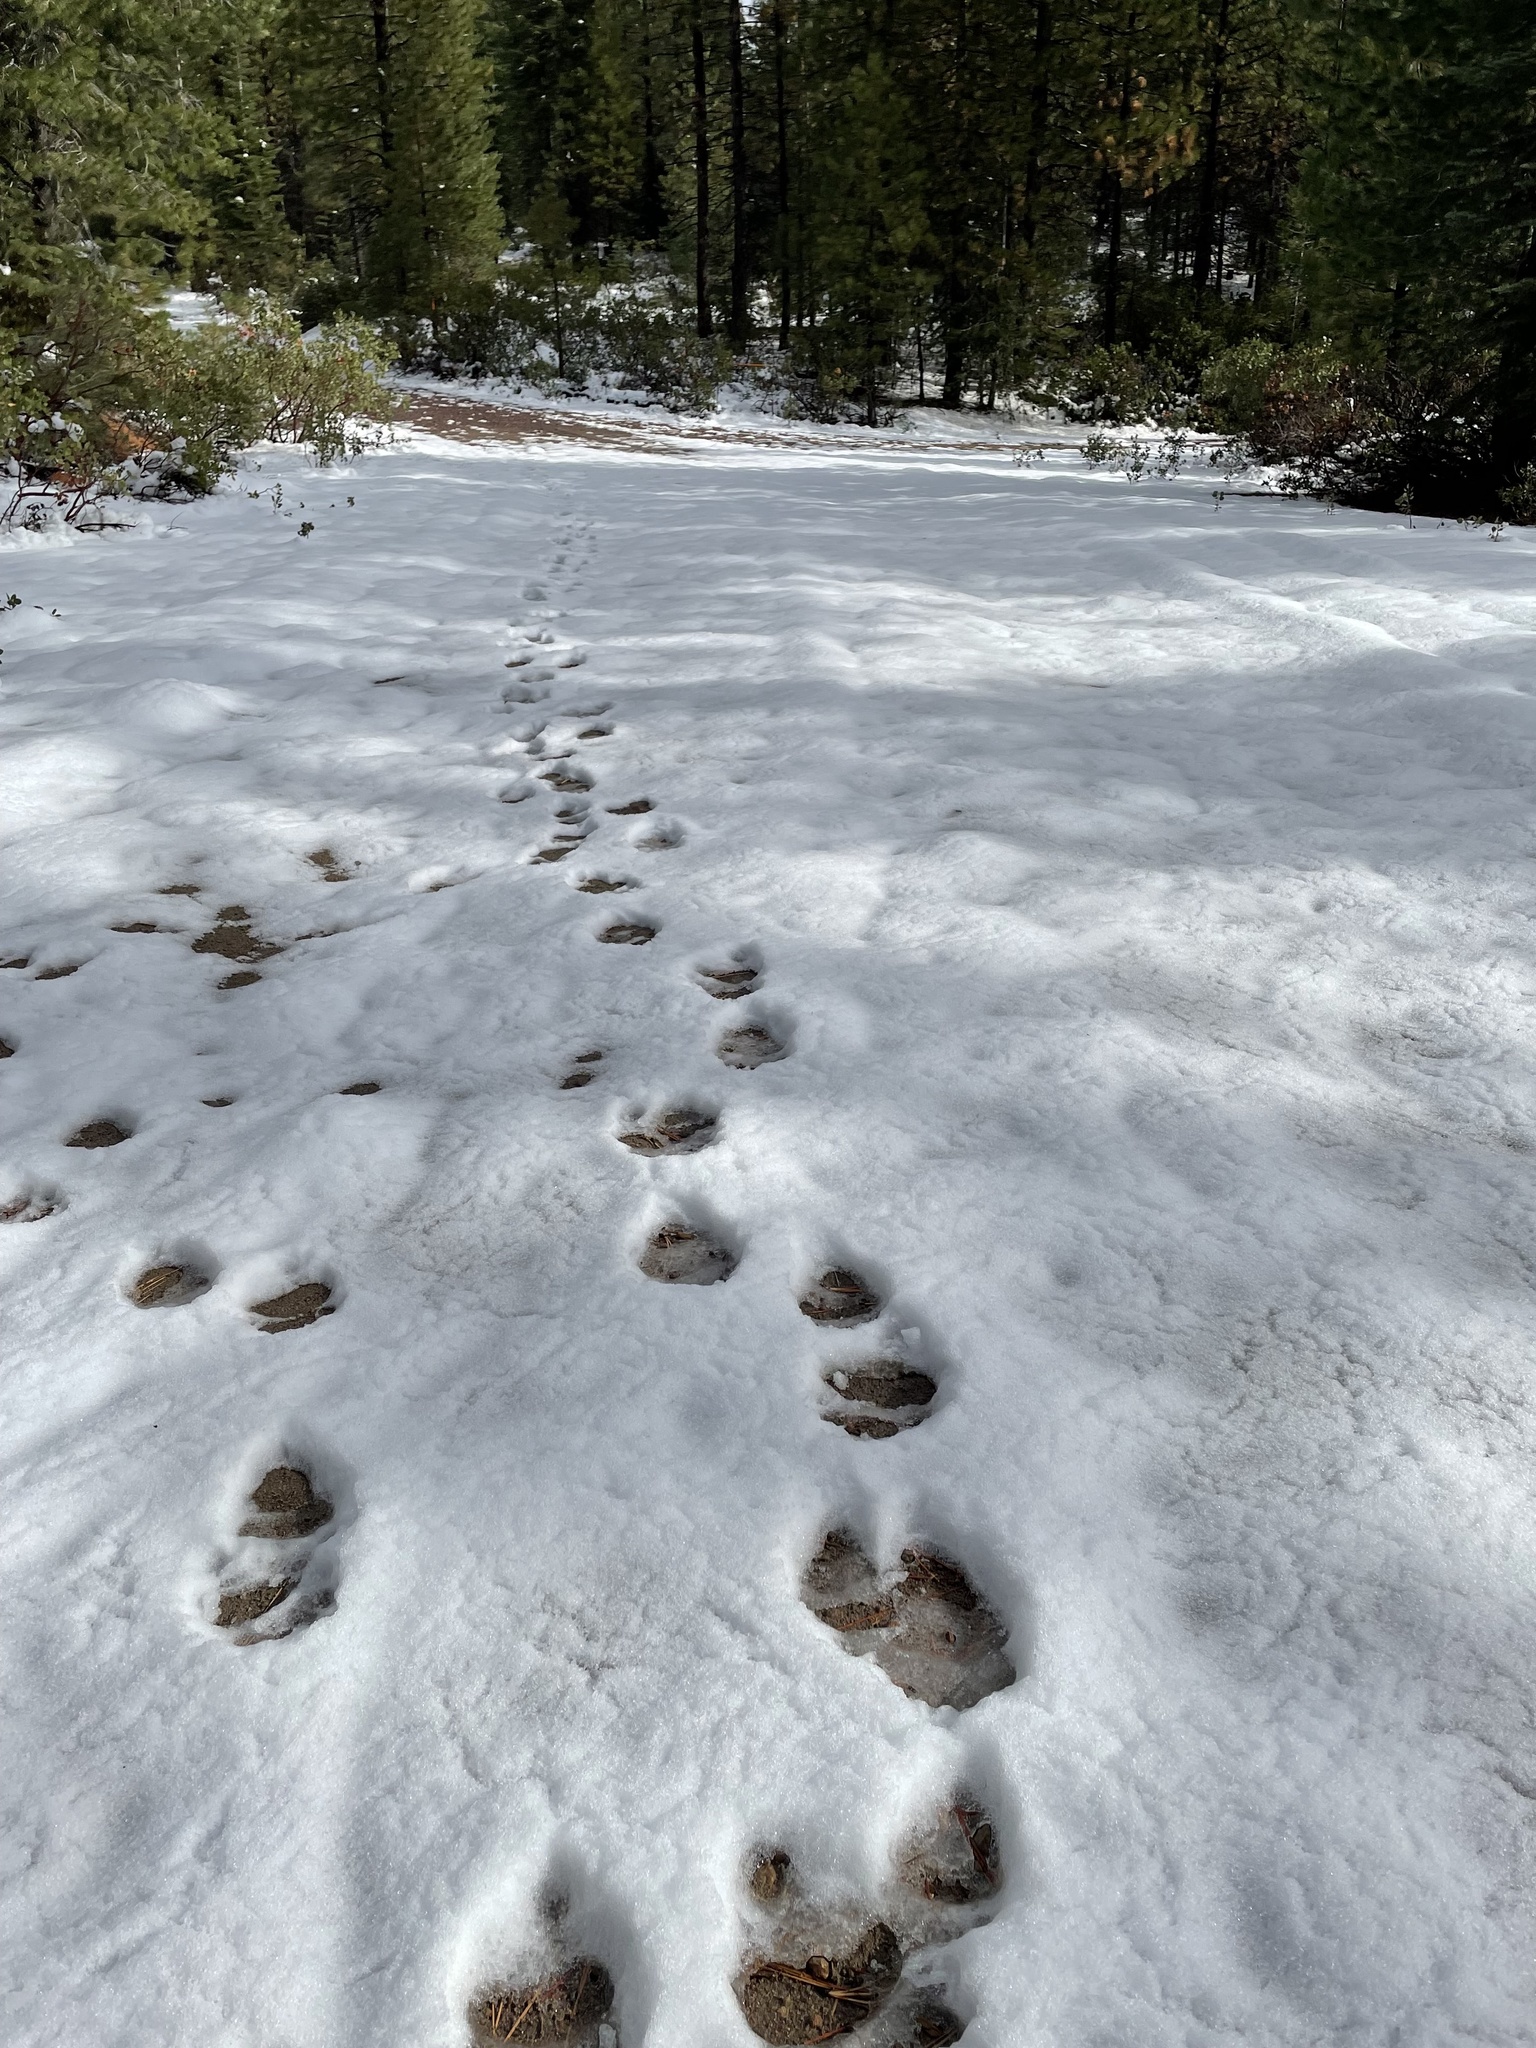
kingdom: Animalia
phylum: Chordata
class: Mammalia
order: Carnivora
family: Ursidae
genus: Ursus
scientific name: Ursus americanus
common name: American black bear
